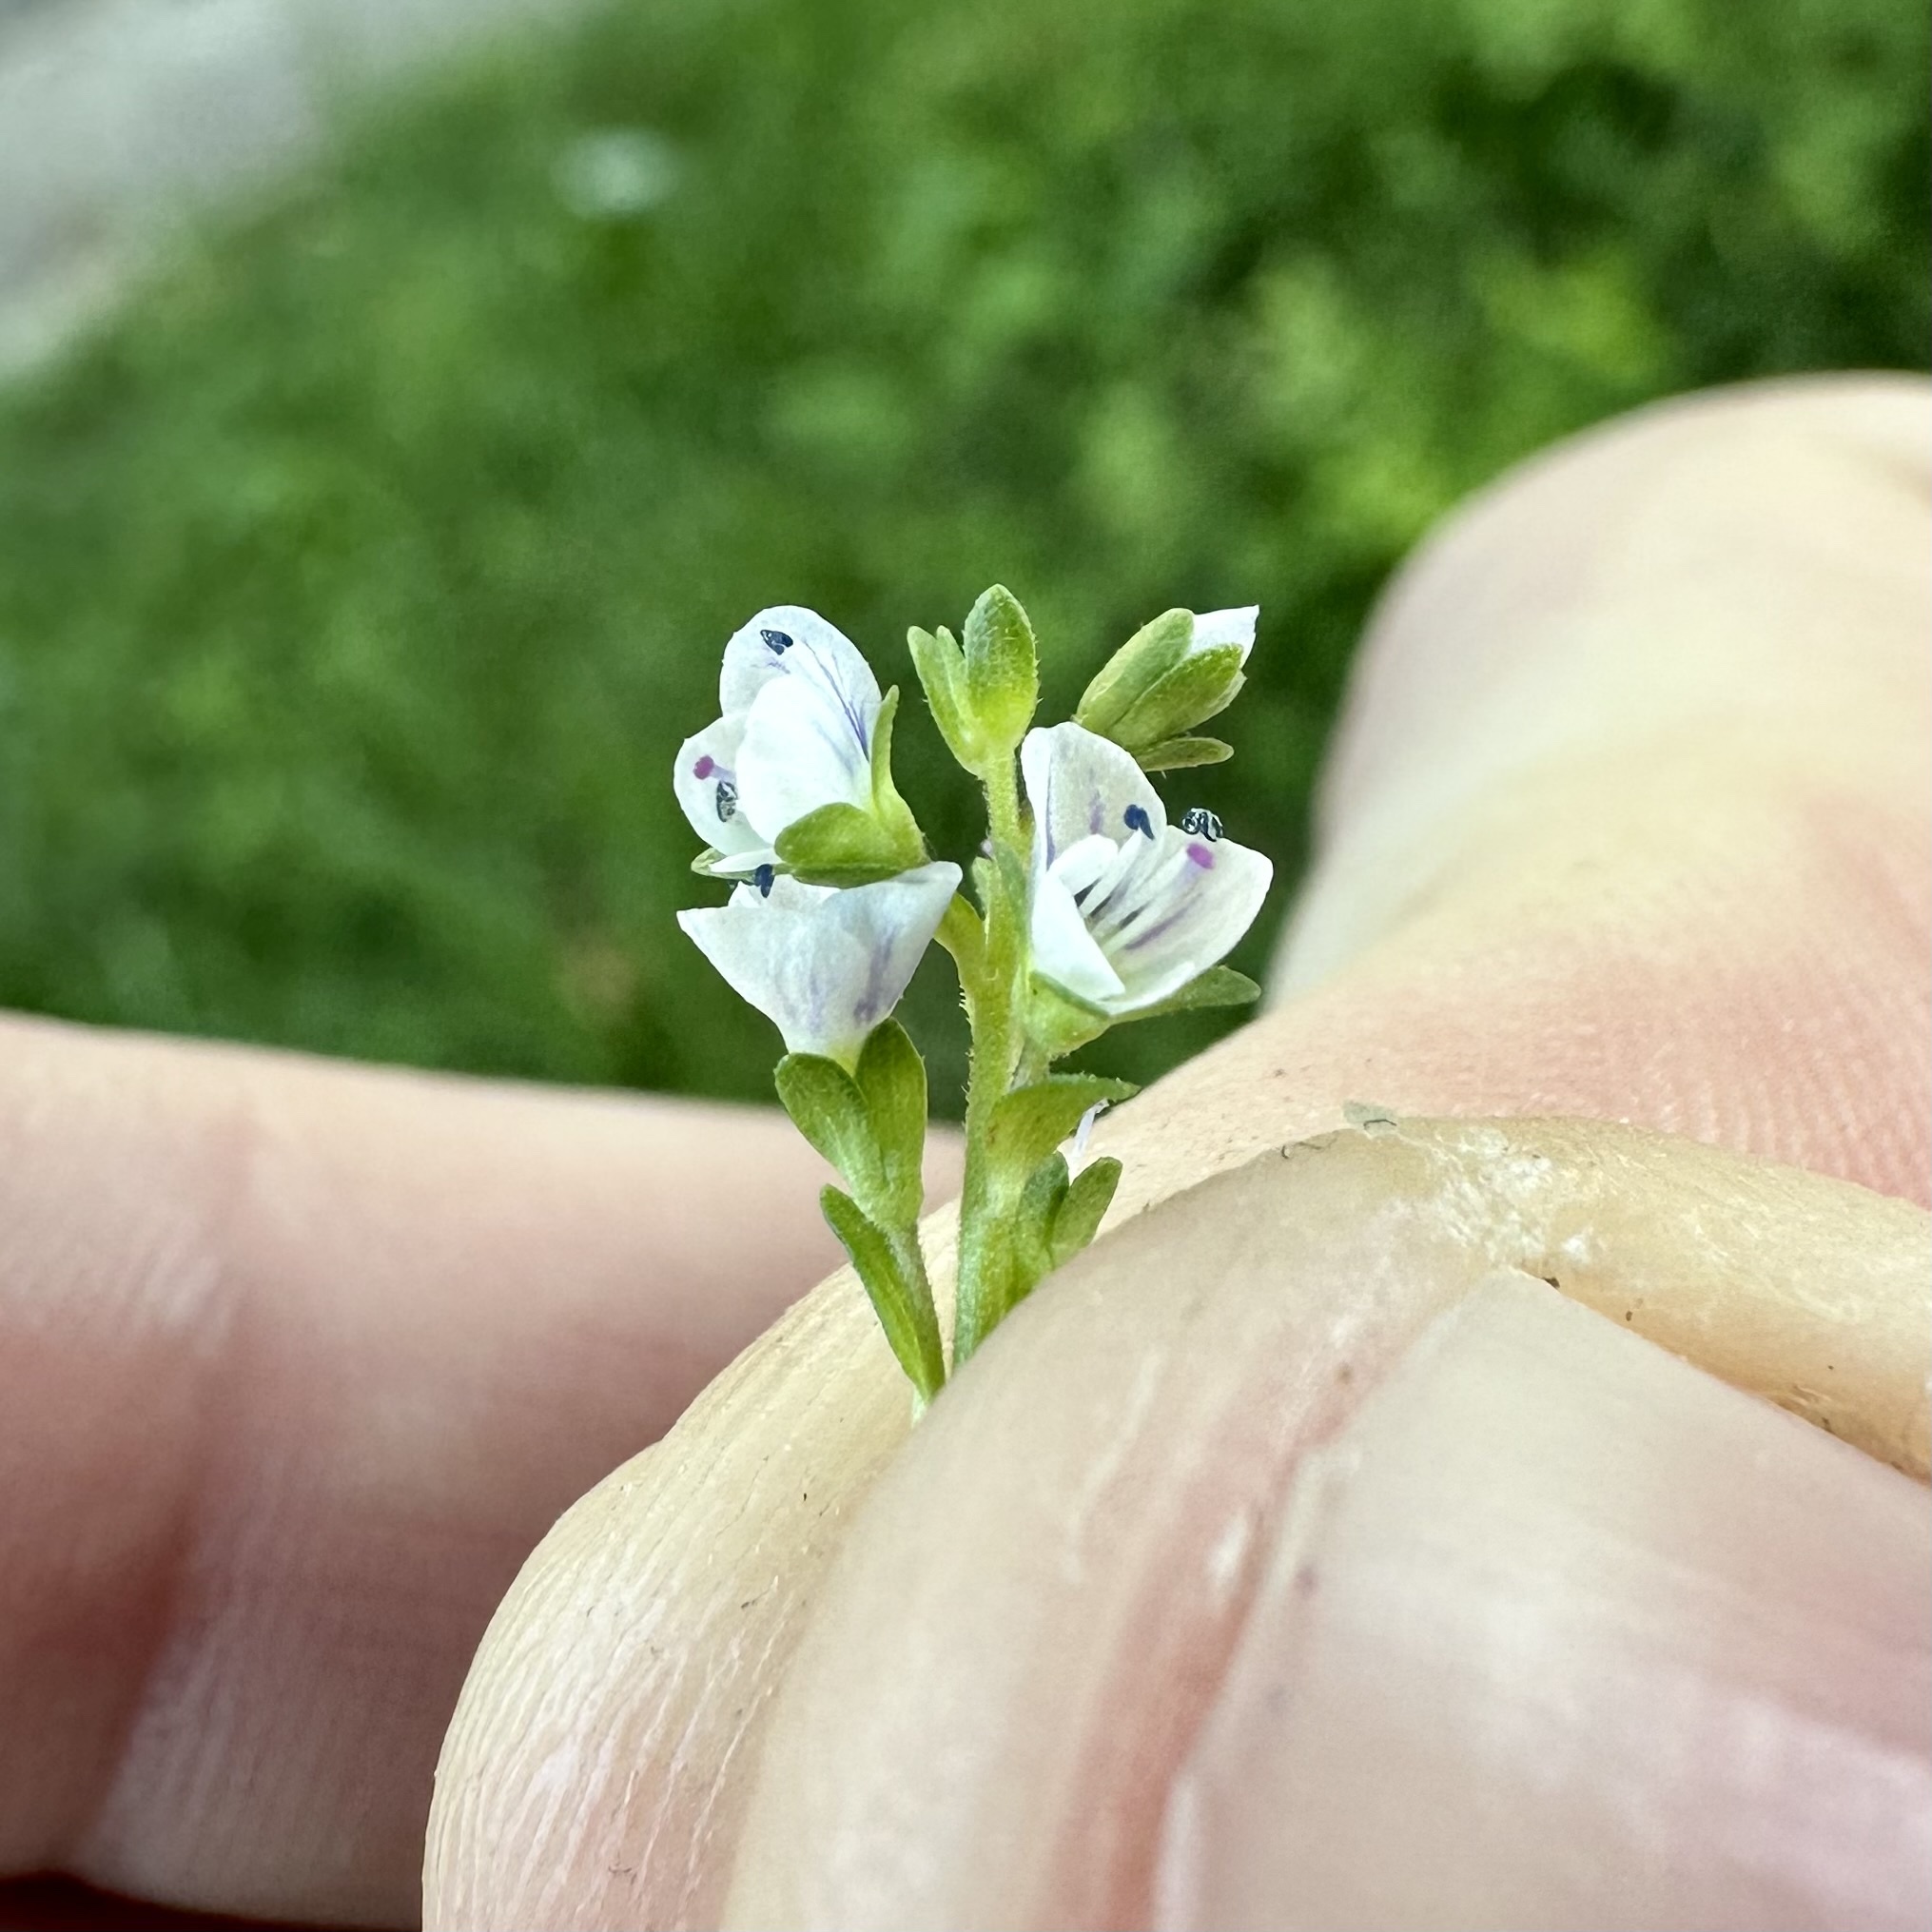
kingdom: Plantae
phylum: Tracheophyta
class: Magnoliopsida
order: Lamiales
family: Plantaginaceae
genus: Veronica
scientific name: Veronica serpyllifolia
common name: Thyme-leaved speedwell
